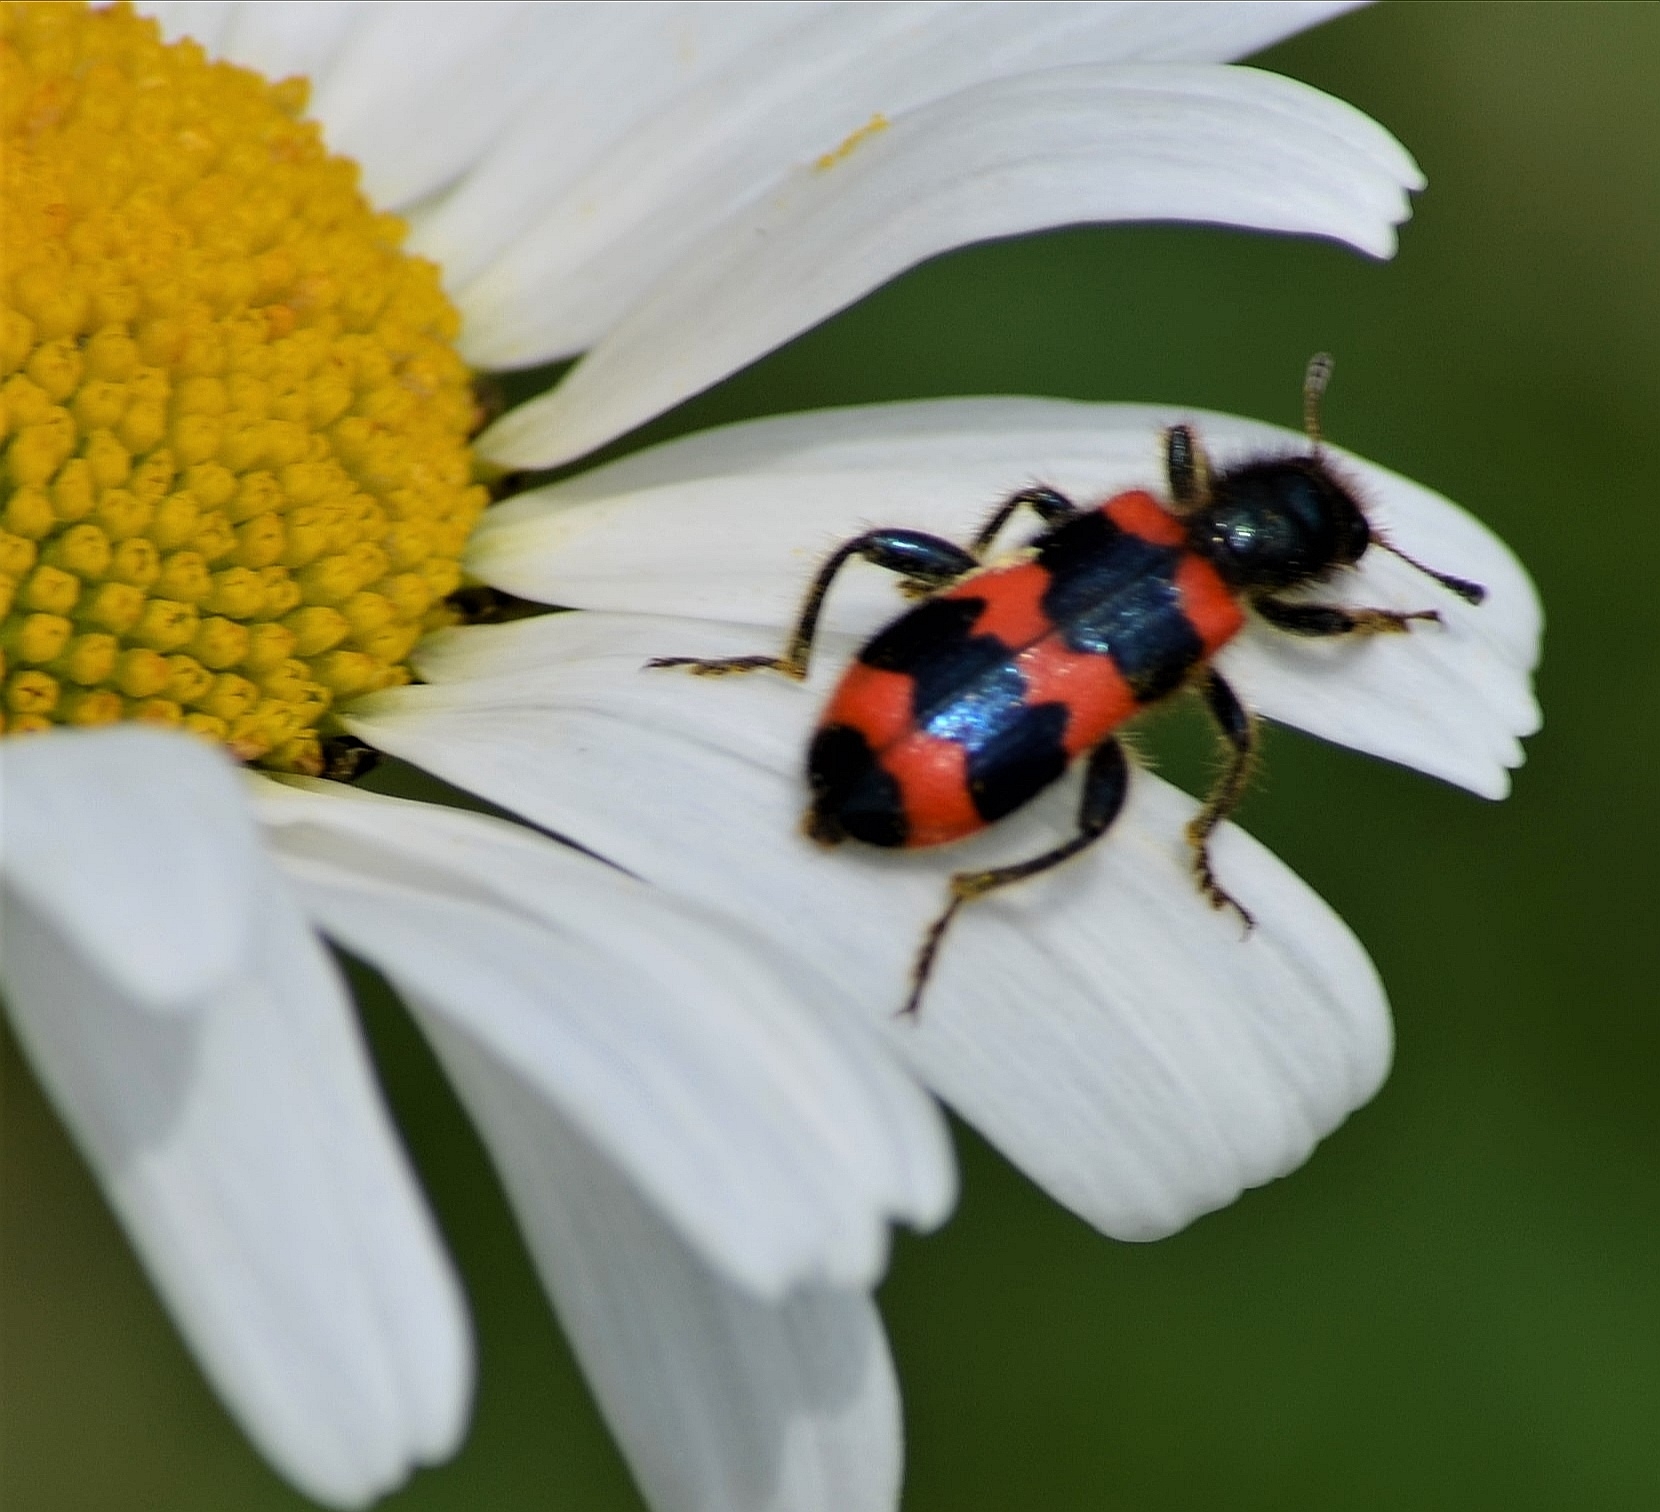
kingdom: Animalia
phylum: Arthropoda
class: Insecta
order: Coleoptera
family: Cleridae
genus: Trichodes
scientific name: Trichodes apiarius
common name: Bee-eating beetle
